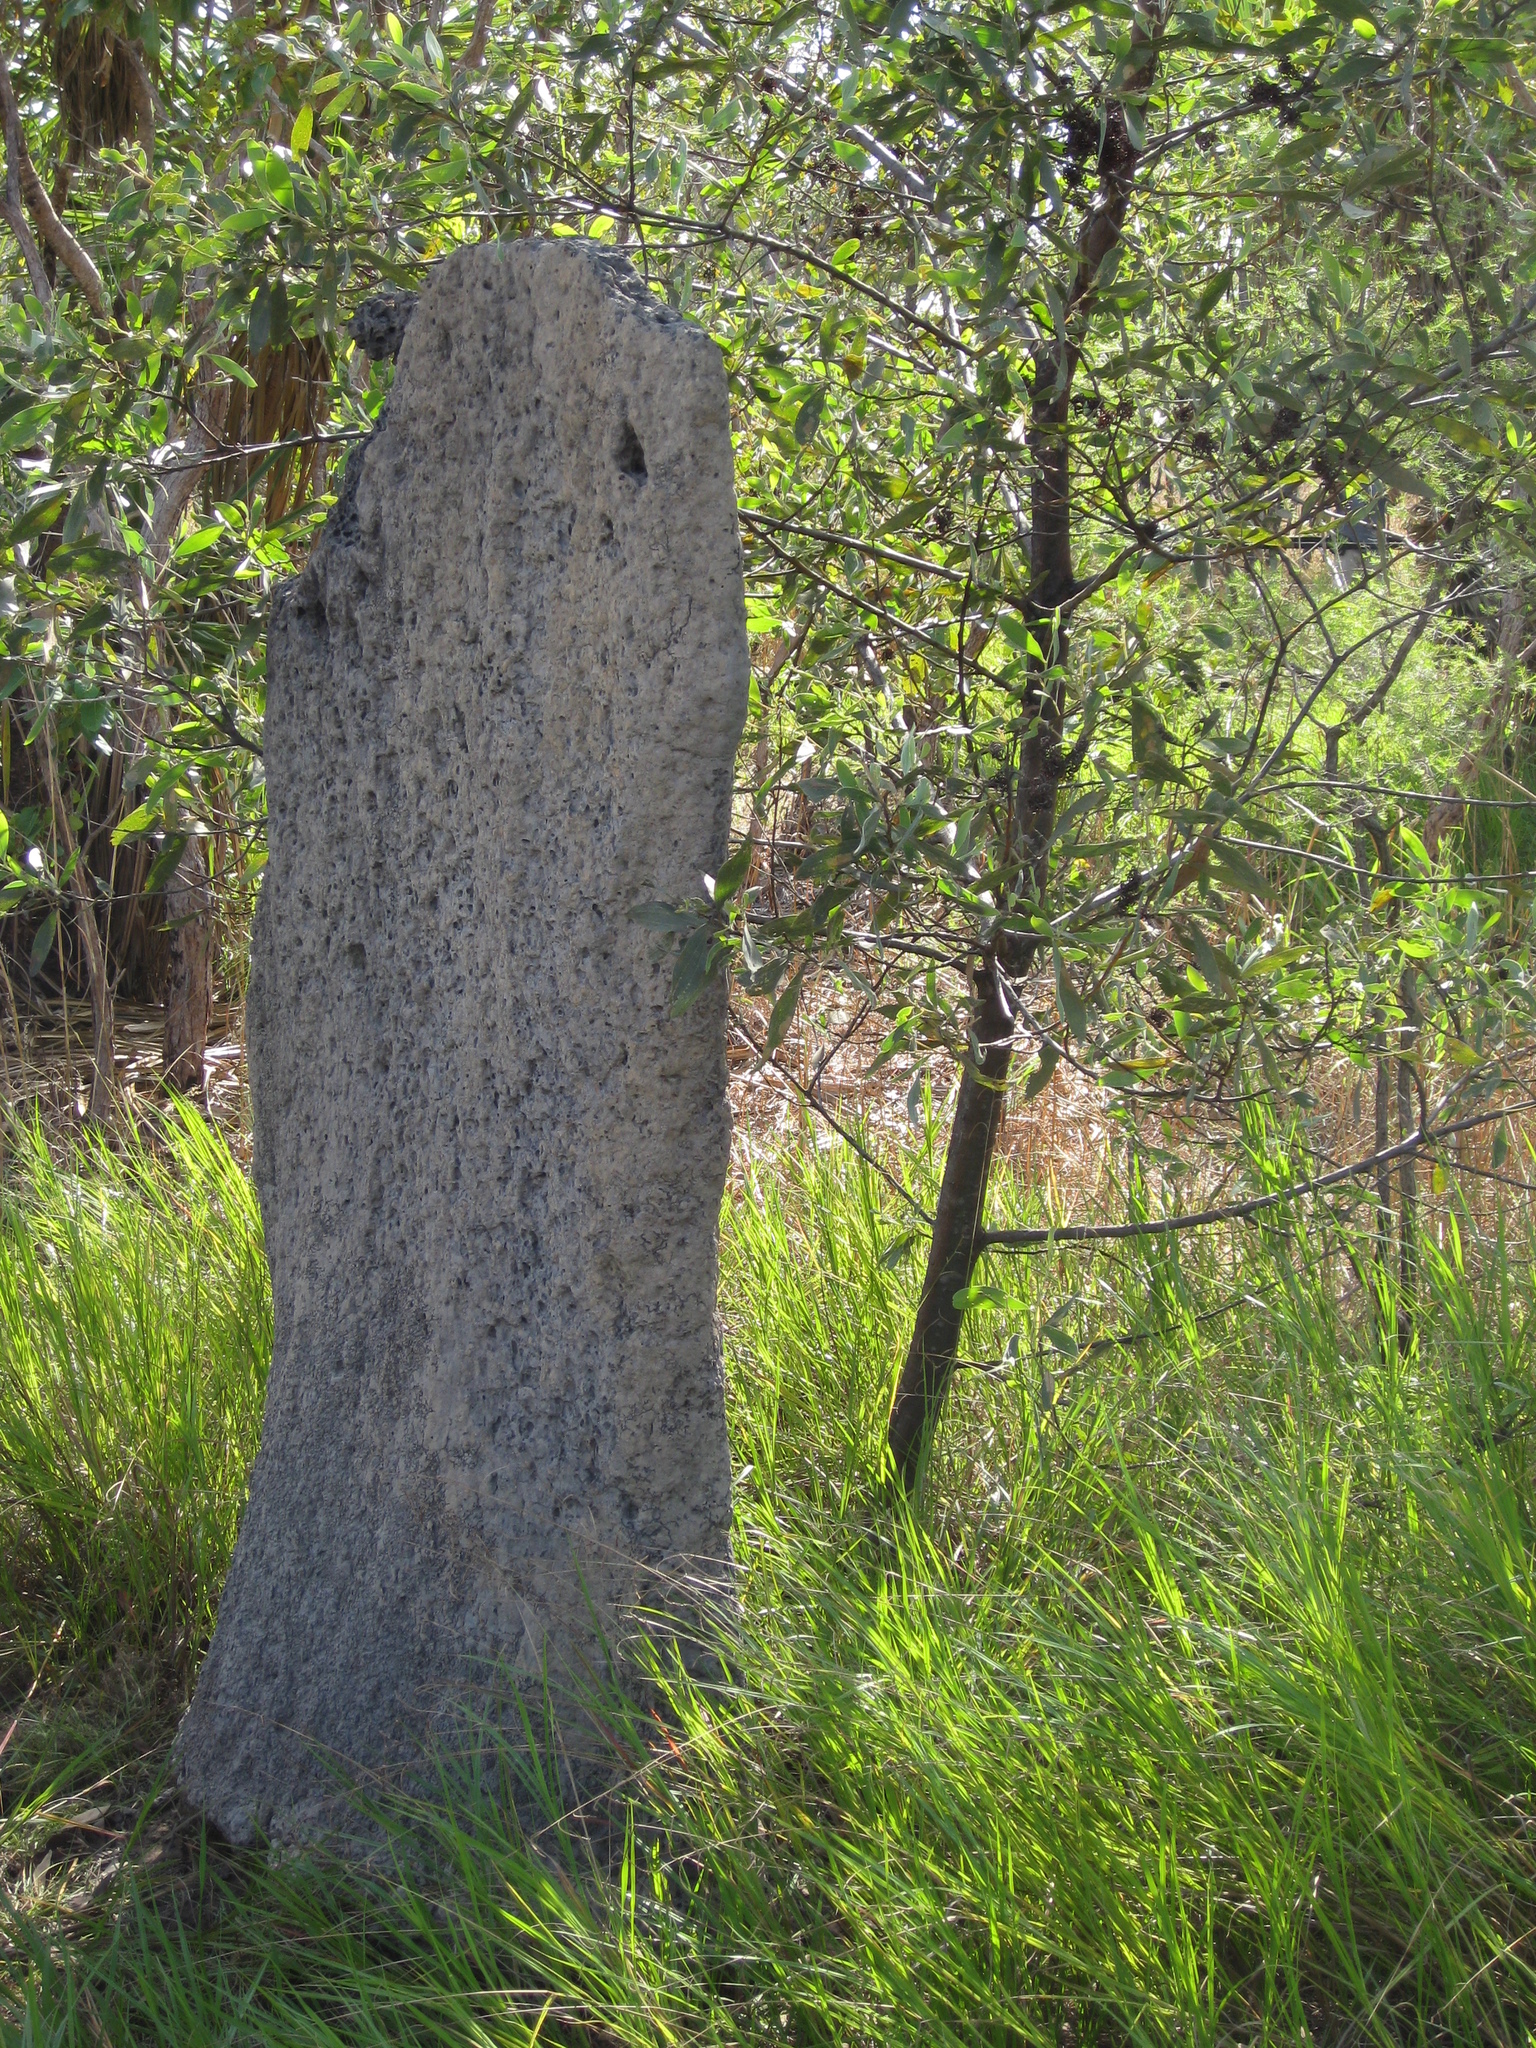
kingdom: Animalia
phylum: Arthropoda
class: Insecta
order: Blattodea
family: Termitidae
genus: Amitermes
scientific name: Amitermes meridionalis
